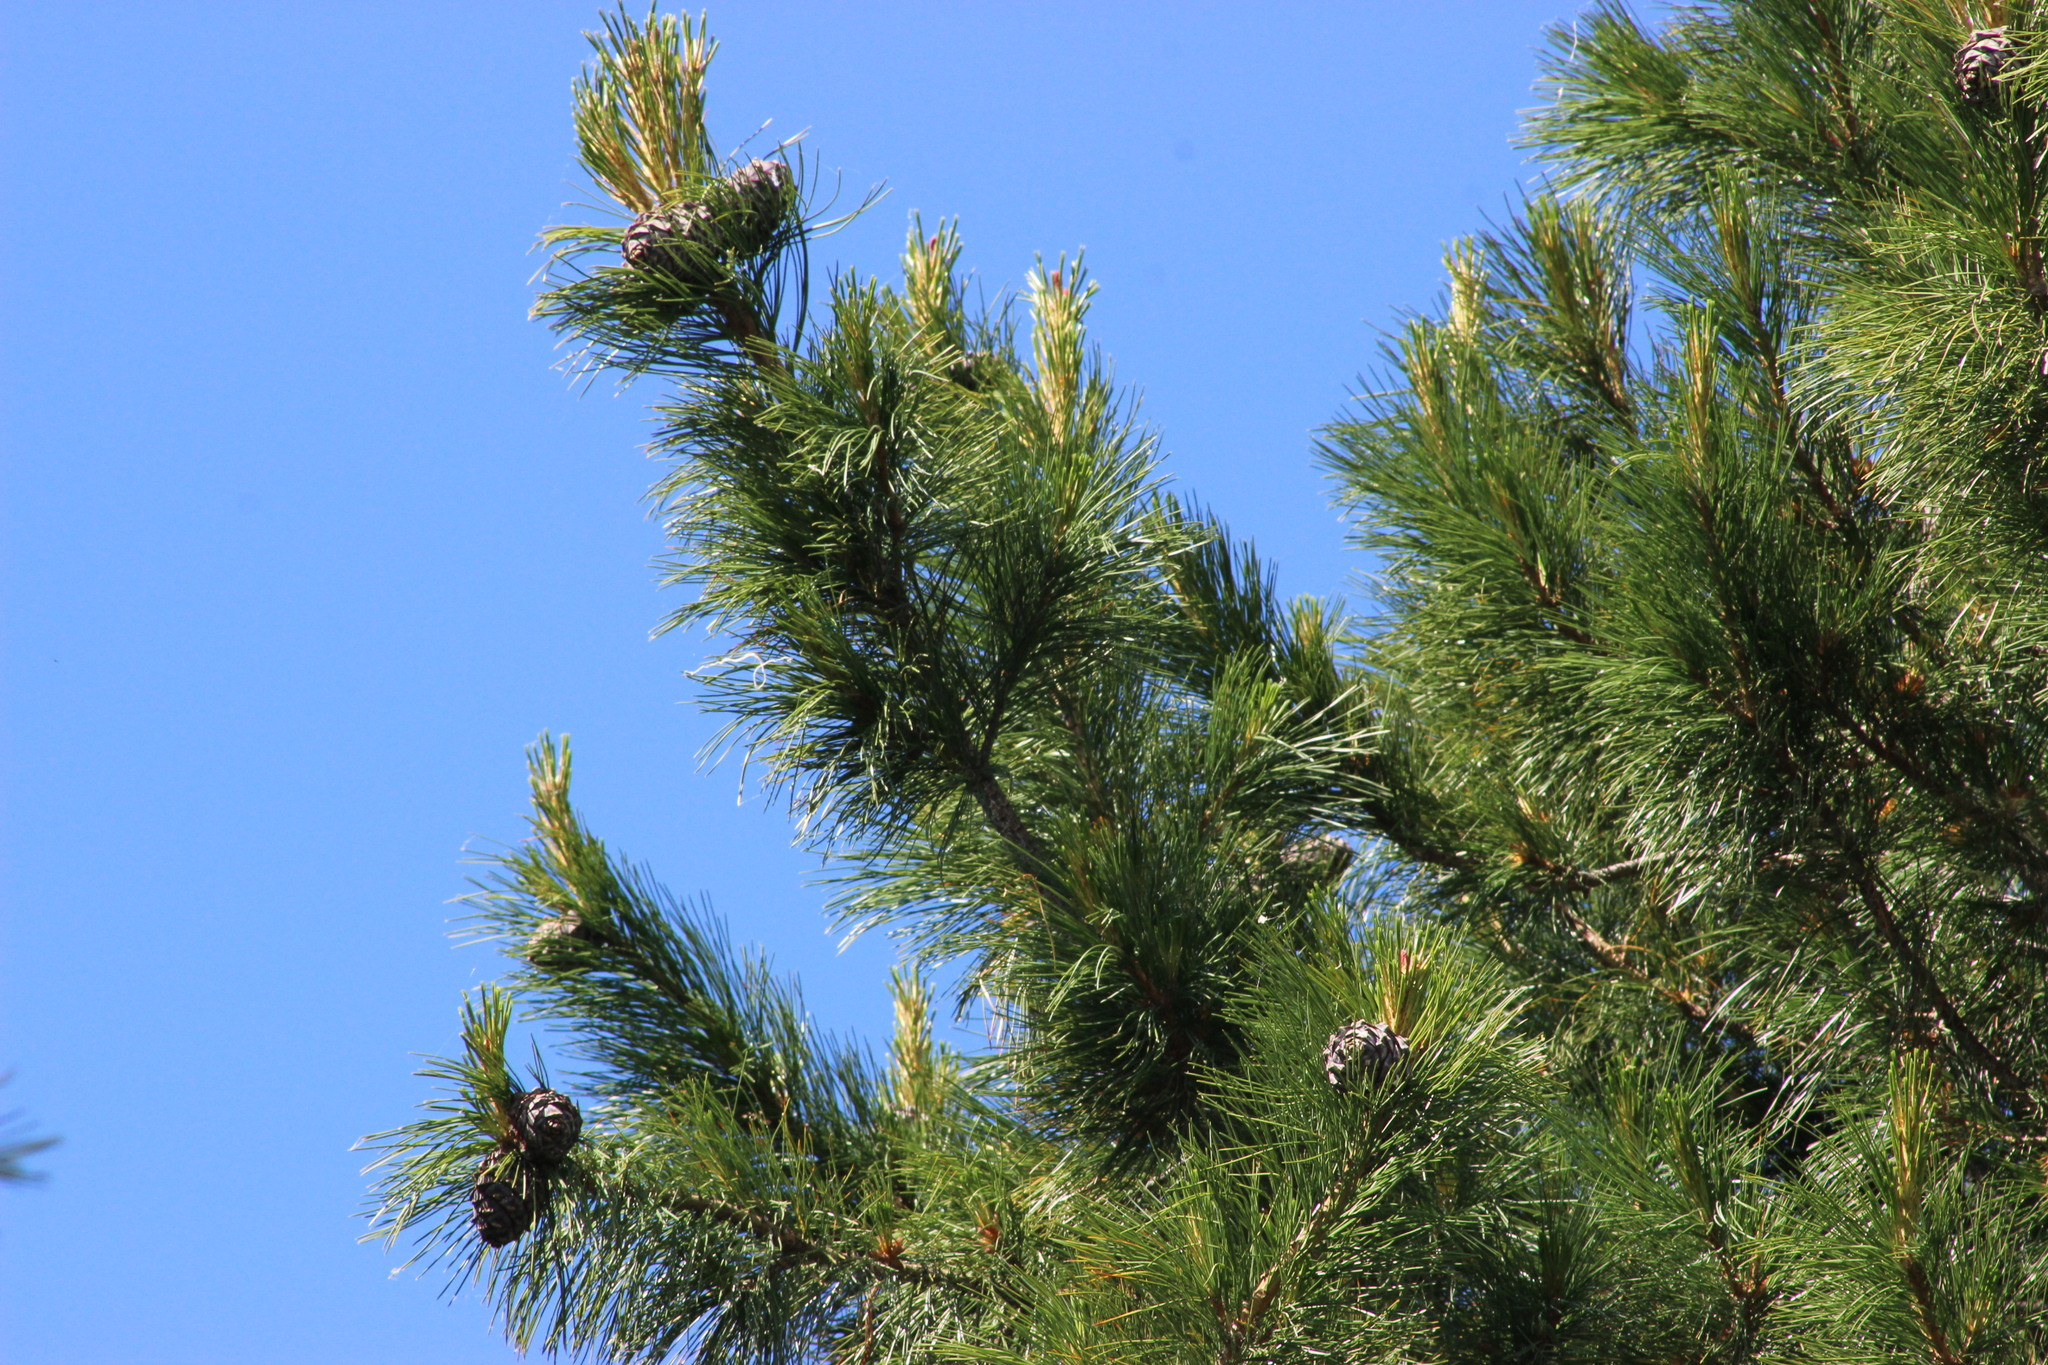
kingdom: Plantae
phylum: Tracheophyta
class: Pinopsida
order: Pinales
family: Pinaceae
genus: Pinus
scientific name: Pinus sibirica
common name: Siberian pine
